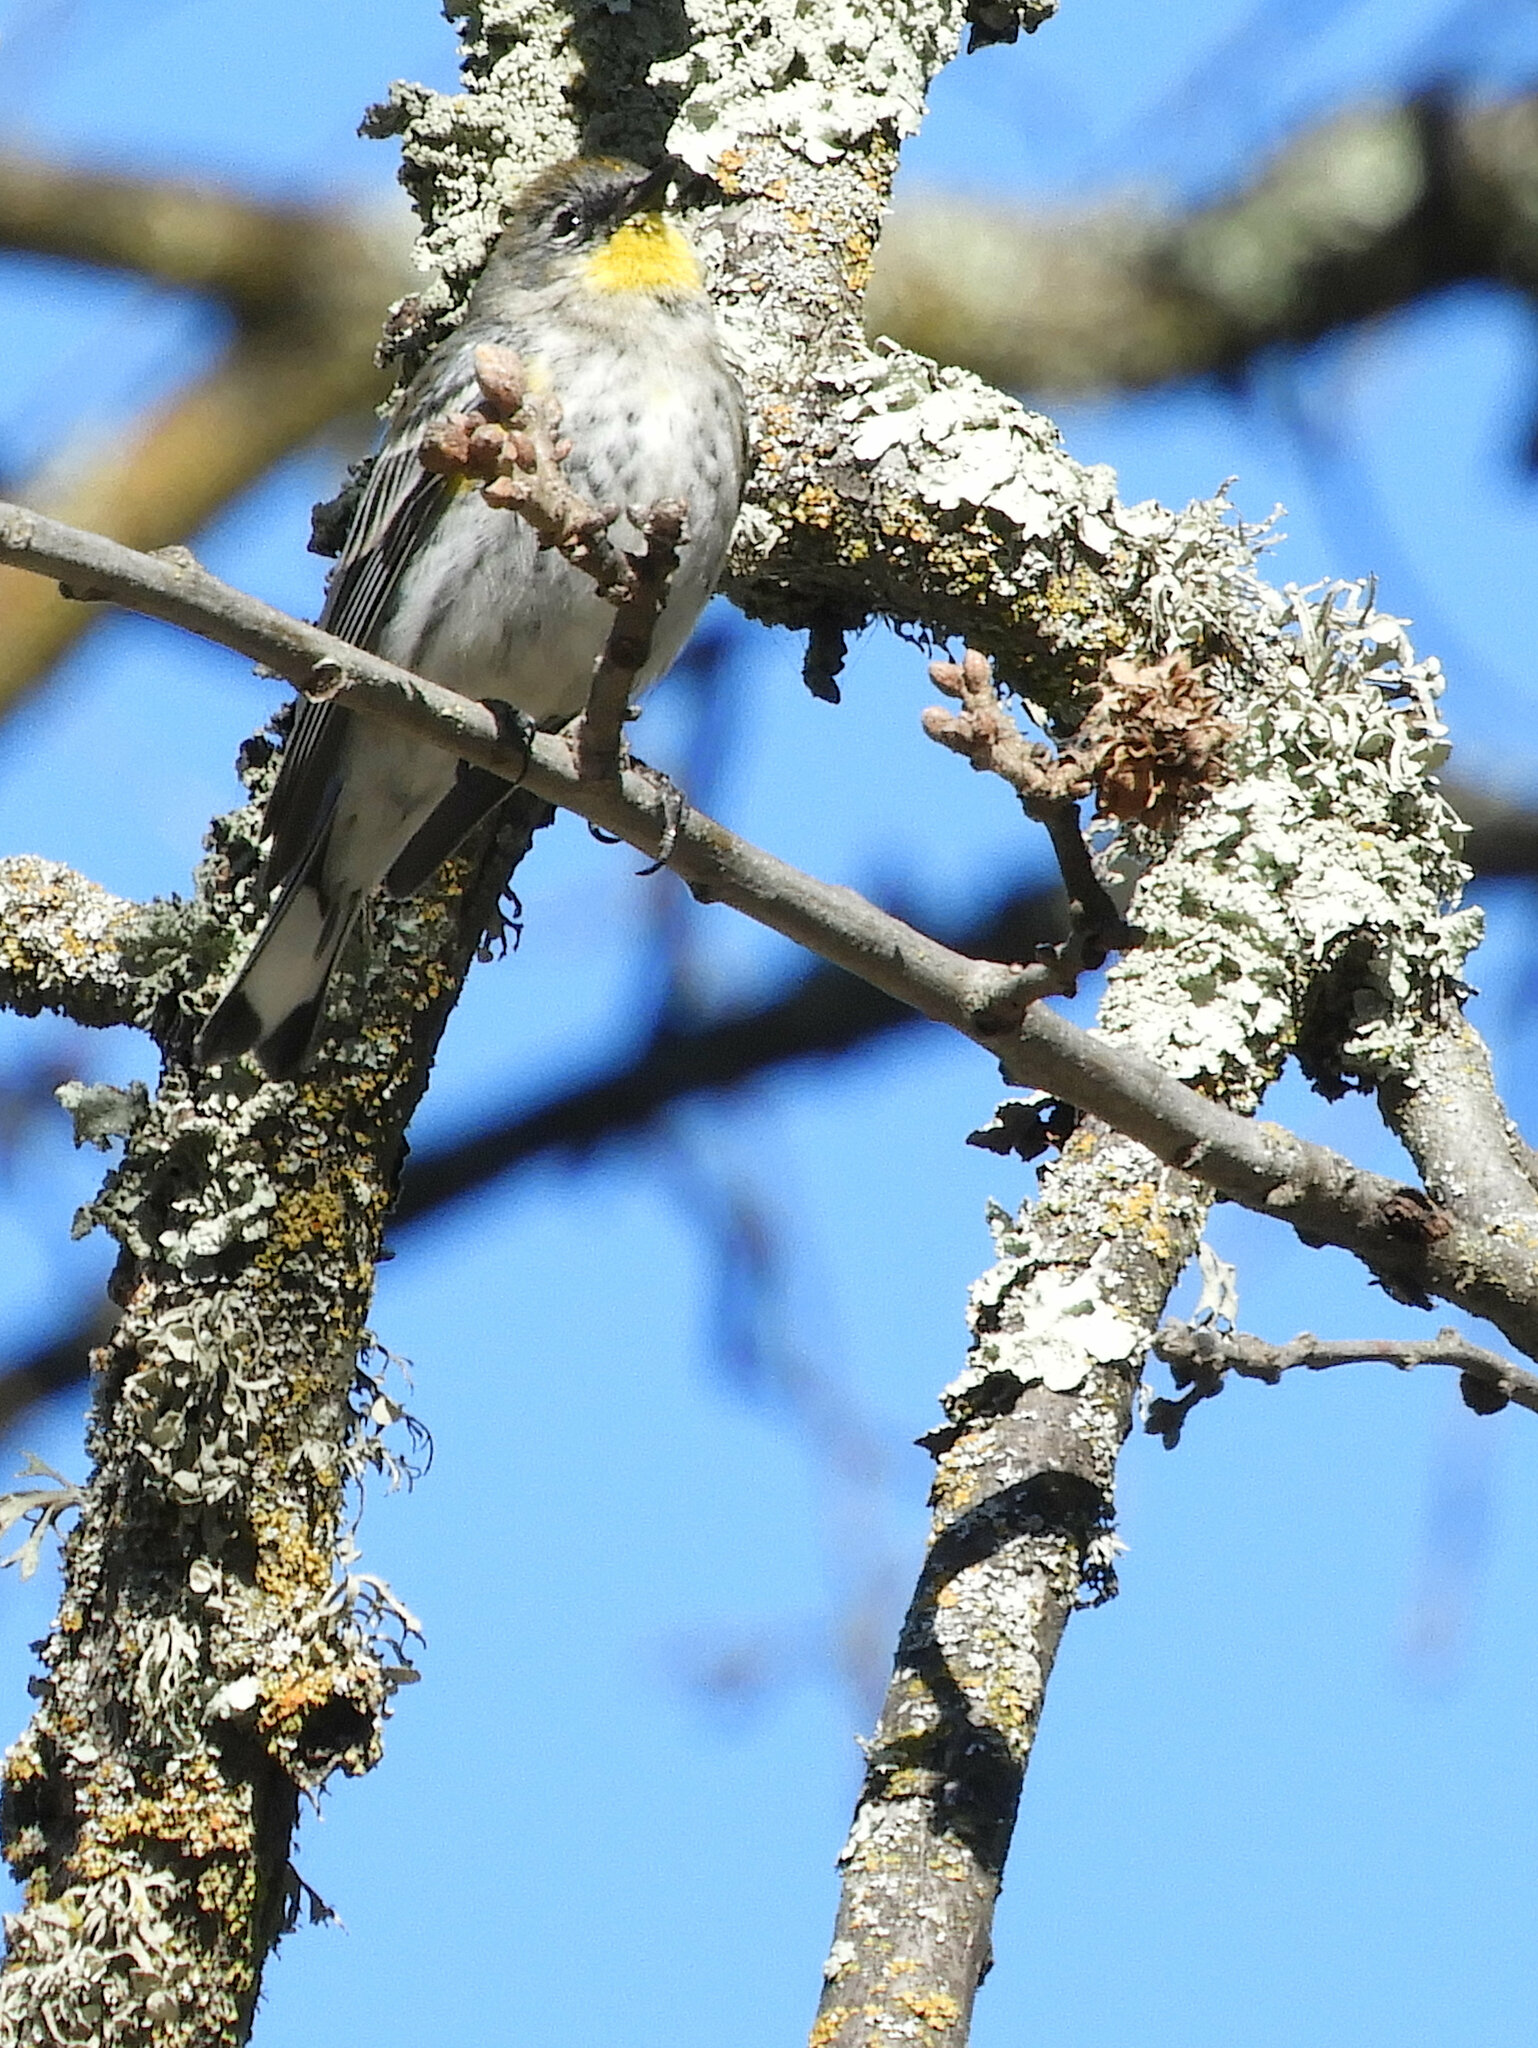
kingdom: Animalia
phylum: Chordata
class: Aves
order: Passeriformes
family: Parulidae
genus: Setophaga
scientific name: Setophaga auduboni
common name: Audubon's warbler
